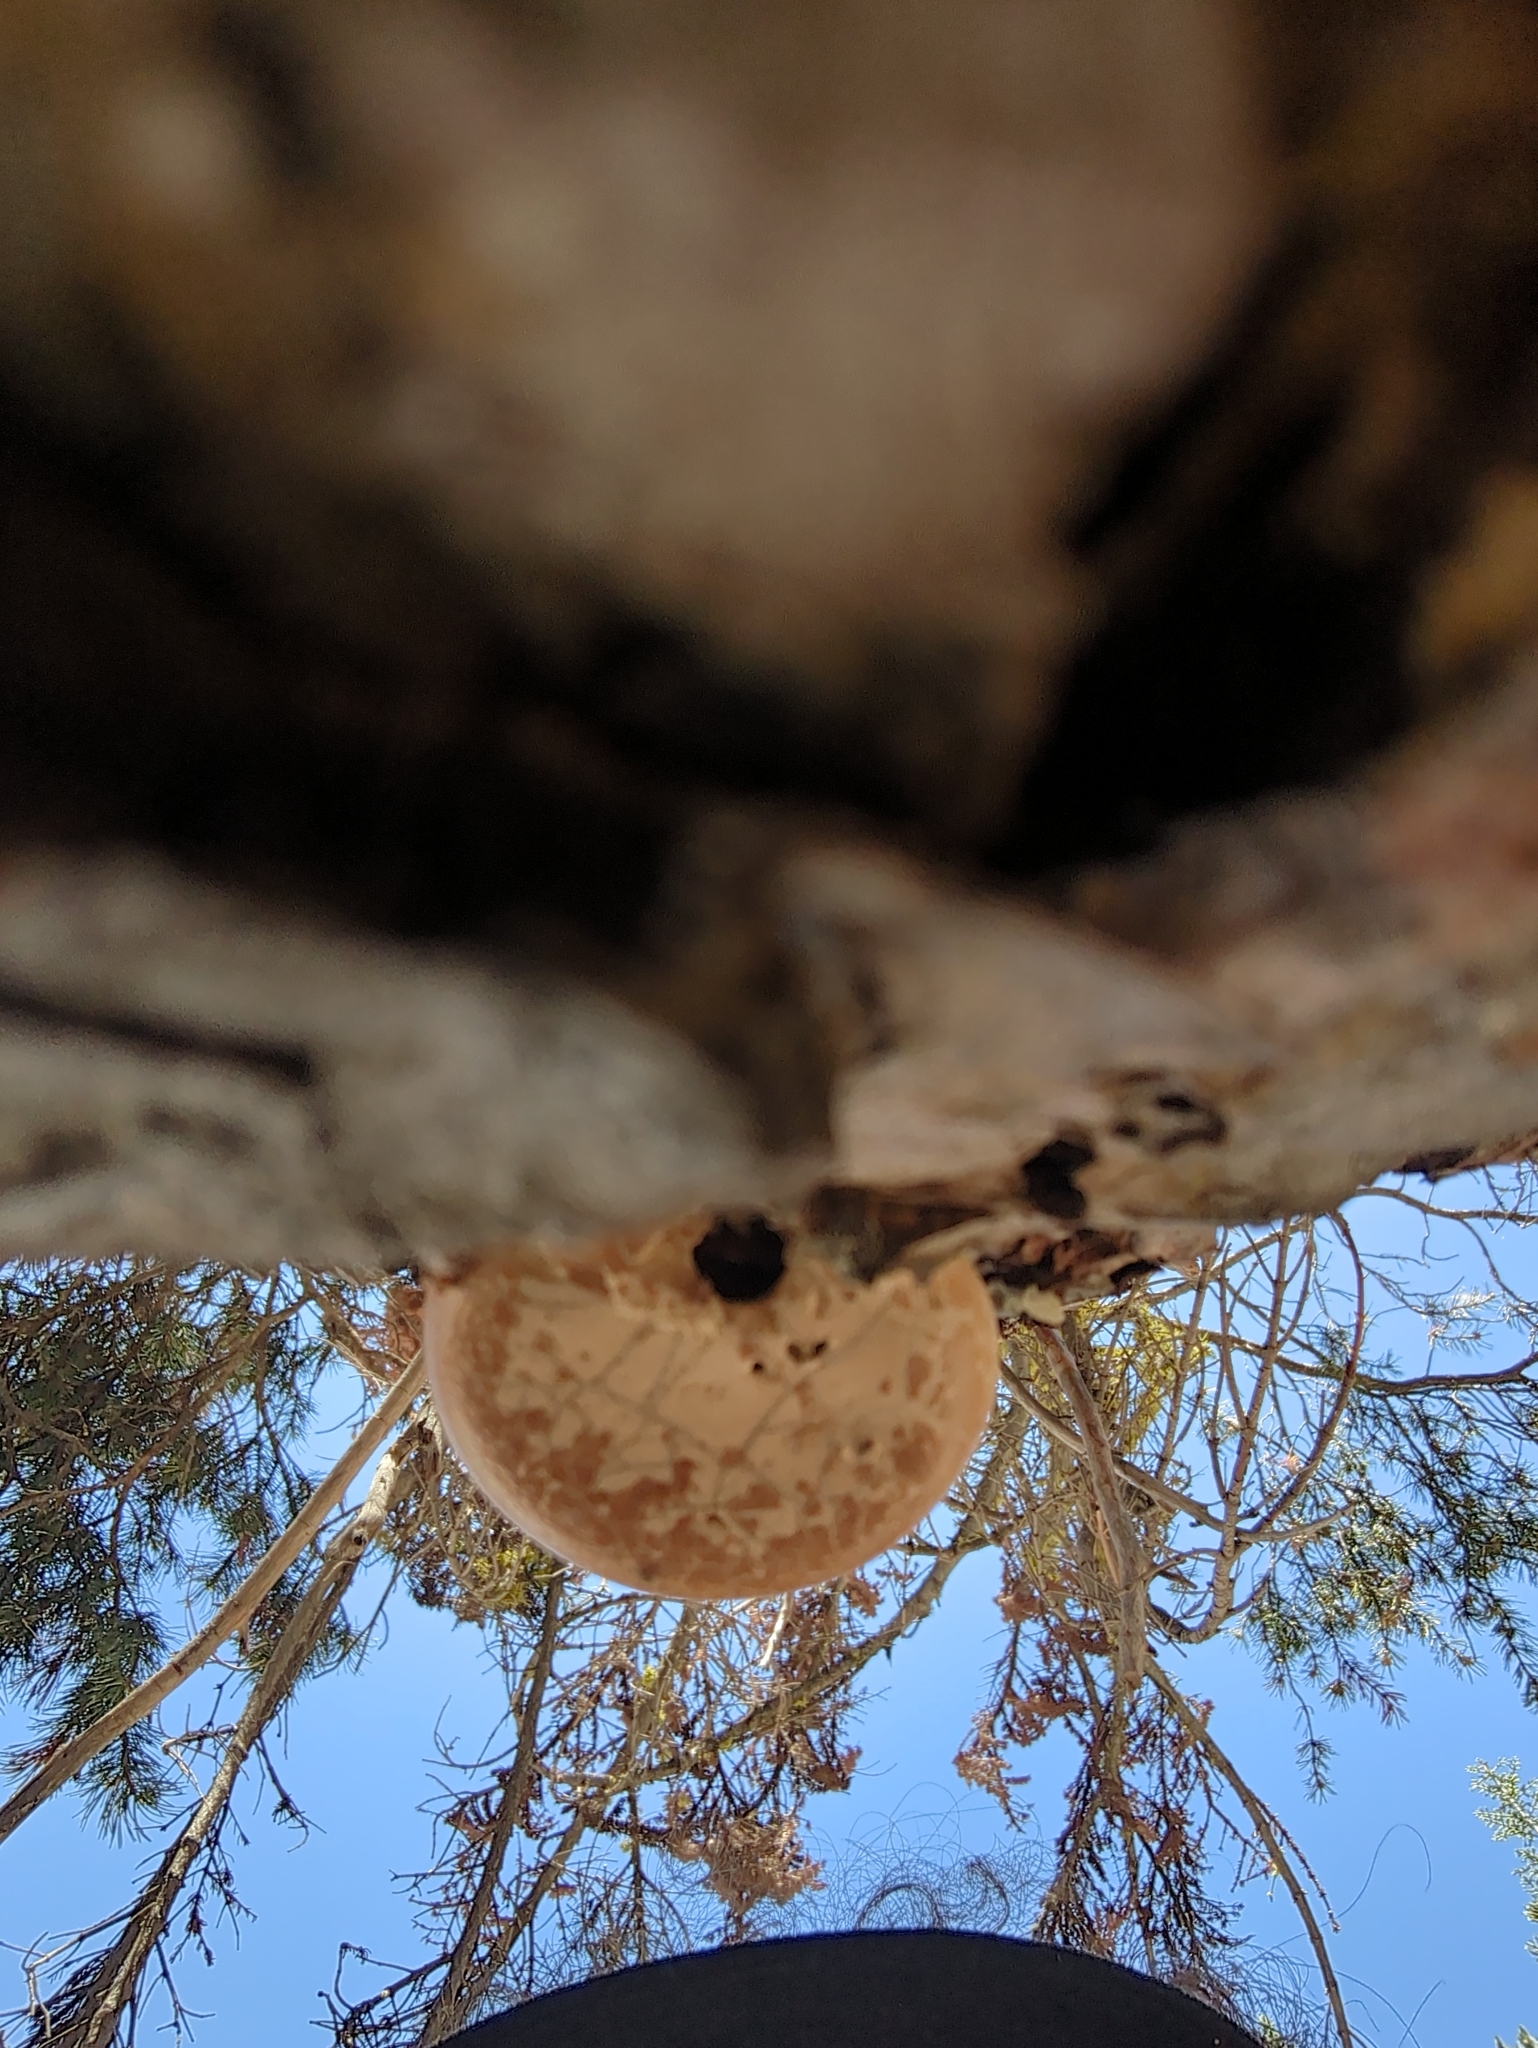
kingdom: Fungi
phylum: Basidiomycota
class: Agaricomycetes
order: Polyporales
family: Polyporaceae
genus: Cryptoporus
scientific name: Cryptoporus volvatus
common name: Veiled polypore
